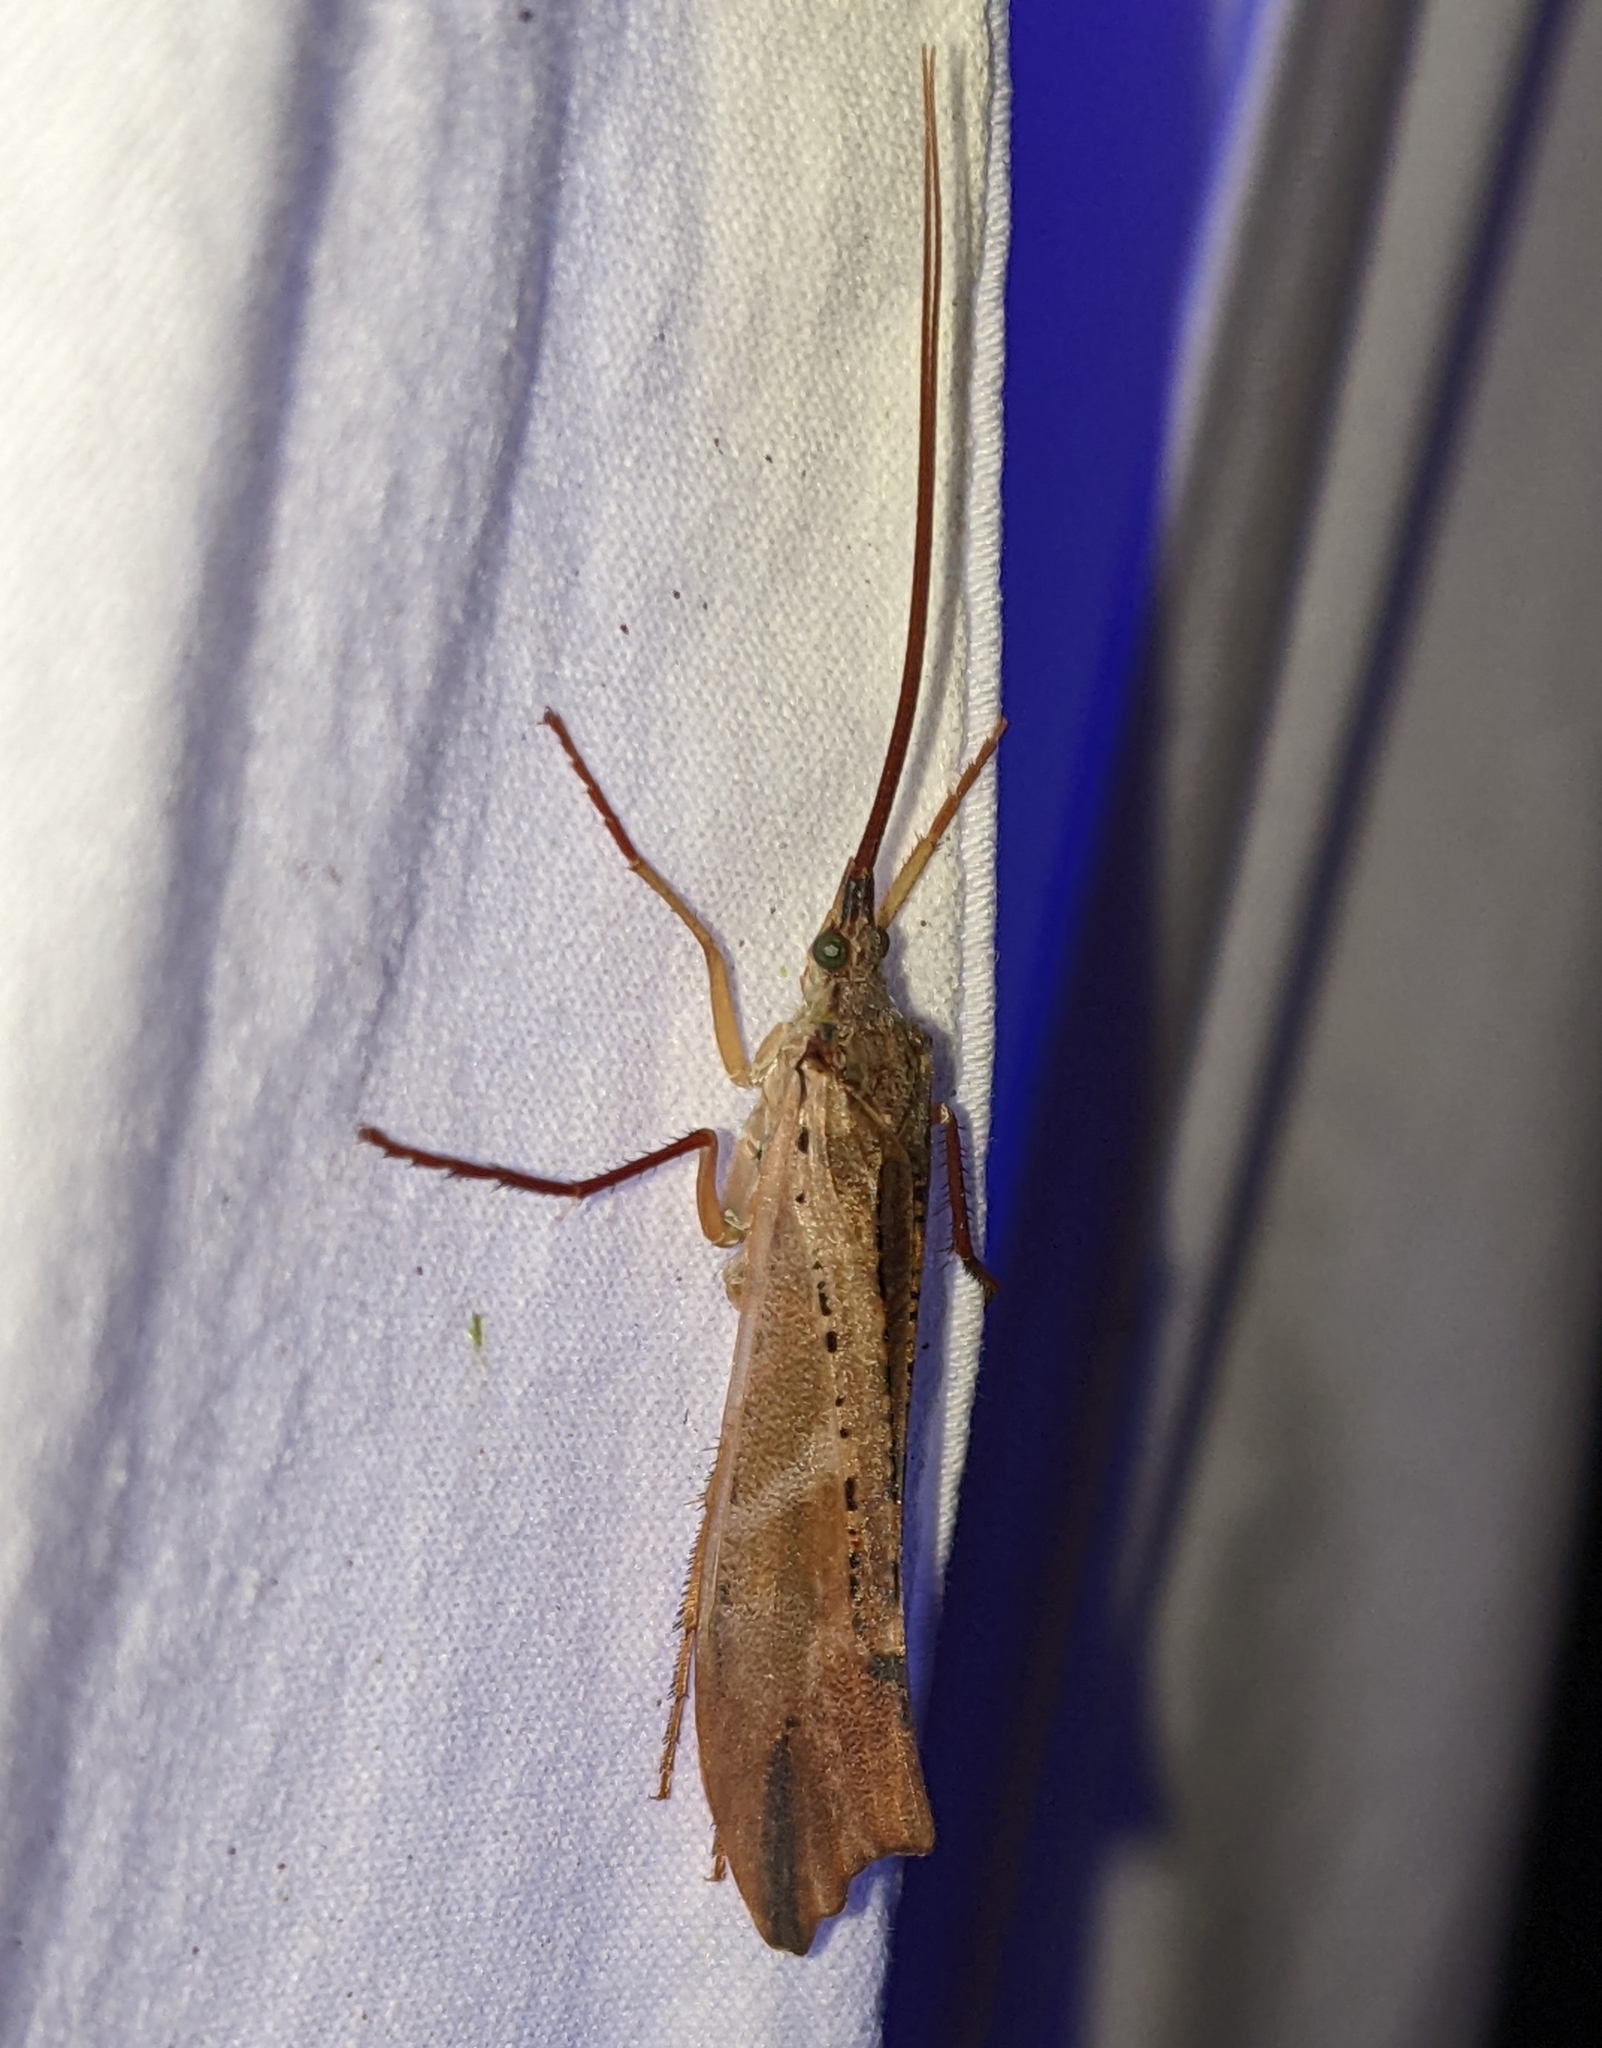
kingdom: Animalia
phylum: Arthropoda
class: Insecta
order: Trichoptera
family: Limnephilidae
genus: Nemotaulius
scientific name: Nemotaulius hostilis
